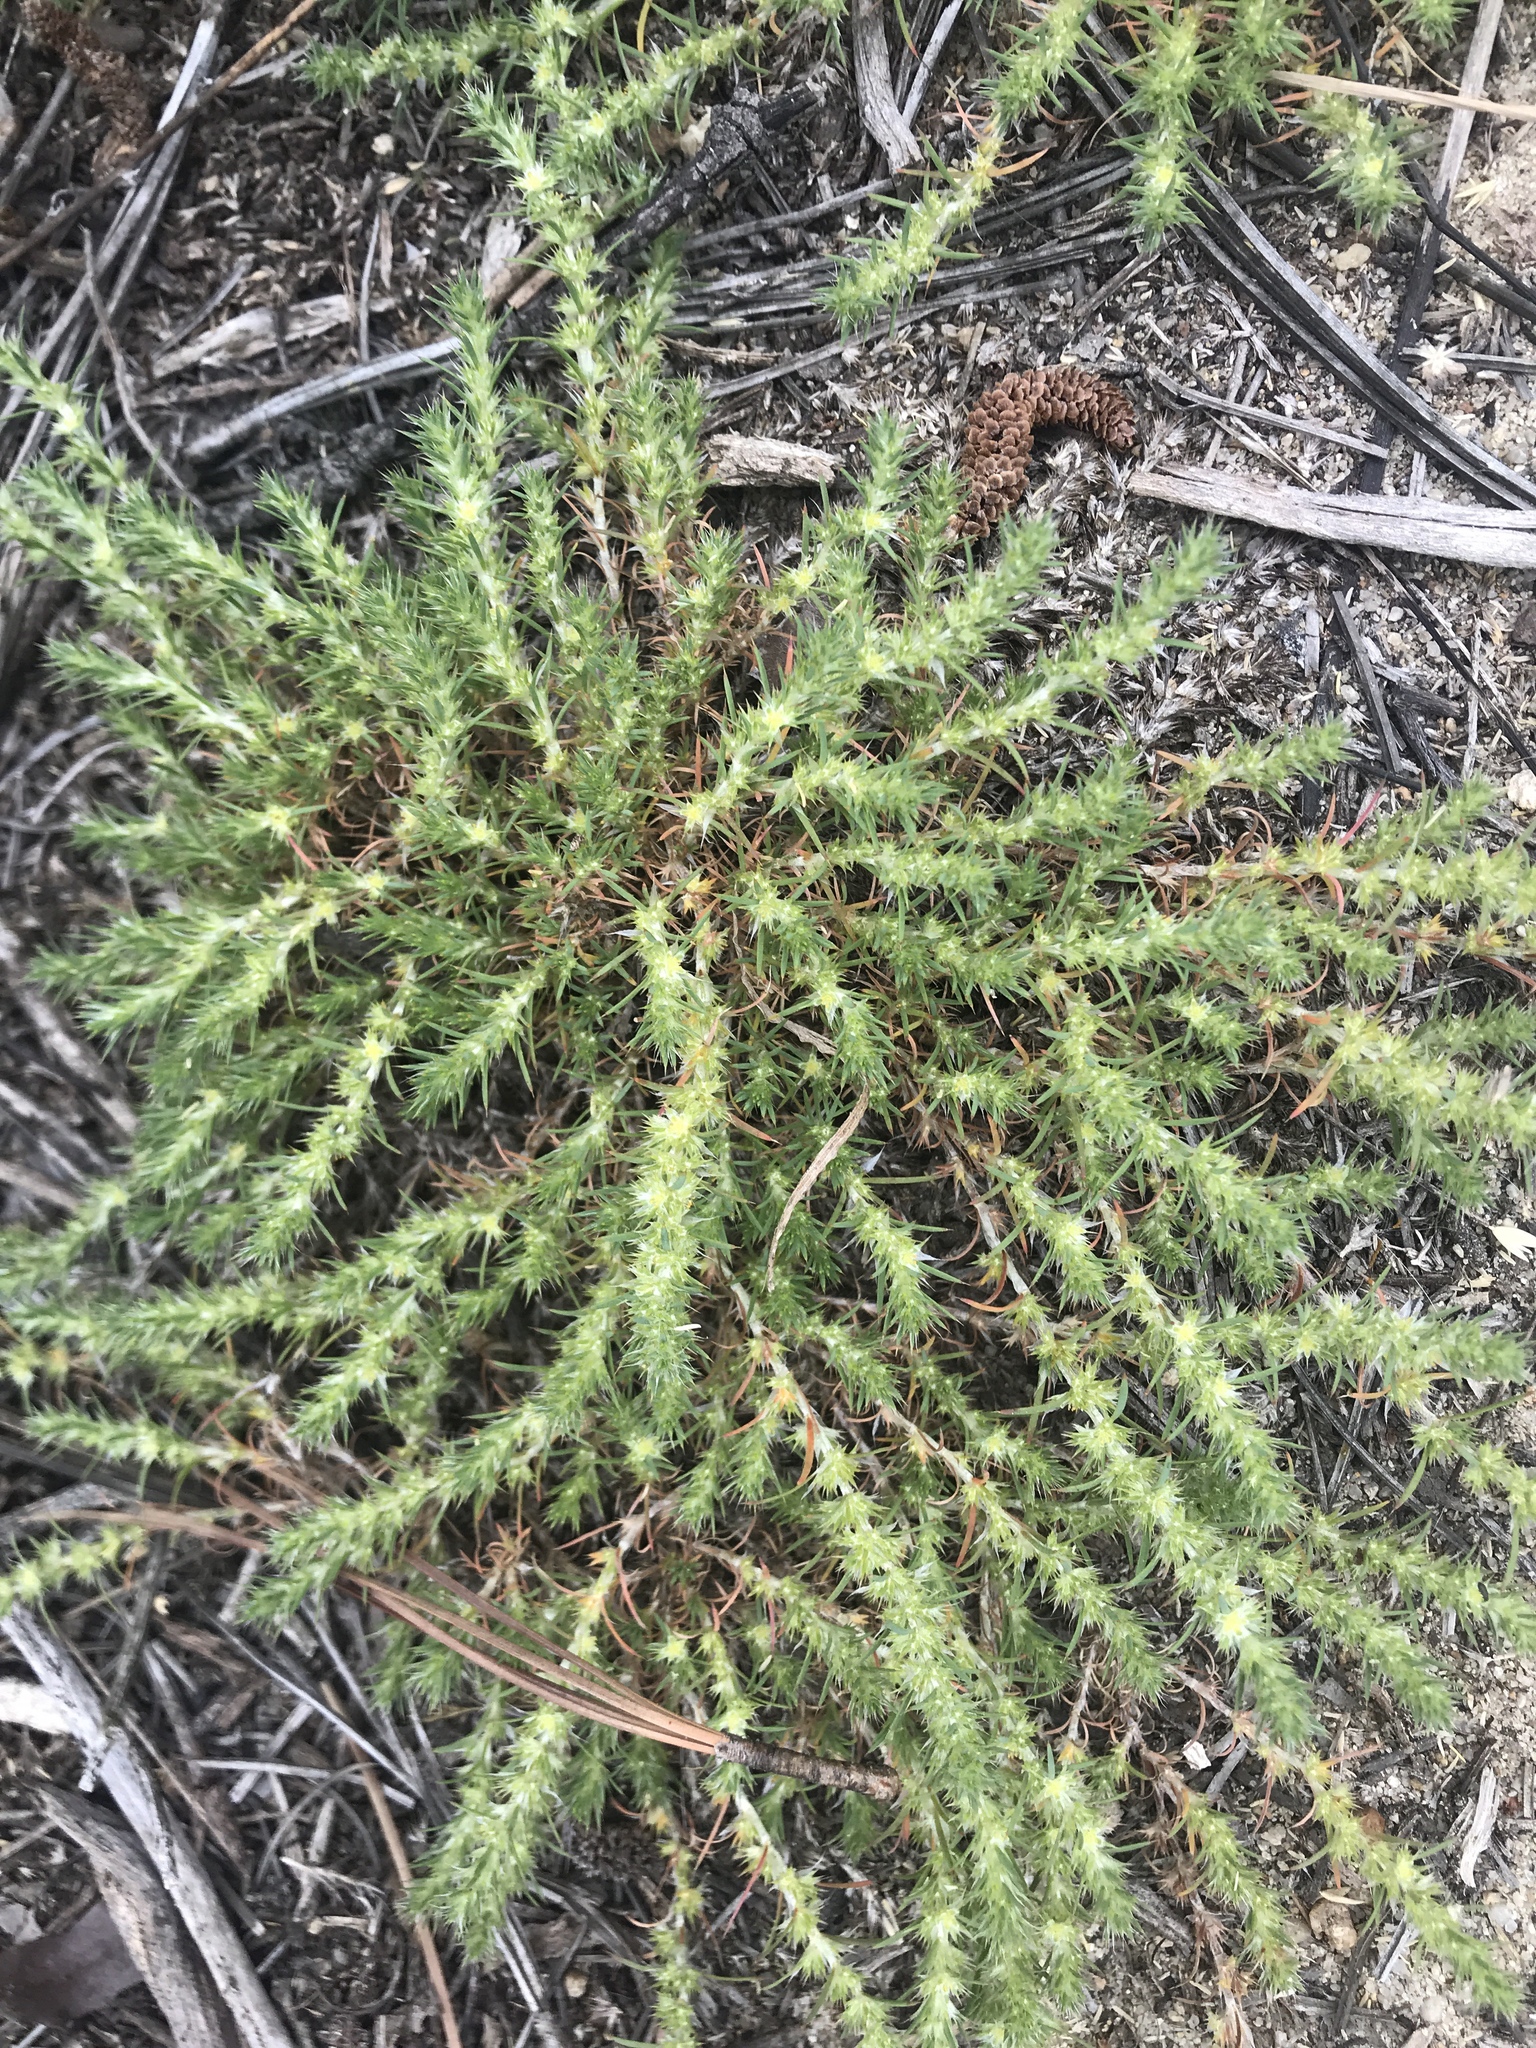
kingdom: Plantae
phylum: Tracheophyta
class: Magnoliopsida
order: Caryophyllales
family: Caryophyllaceae
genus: Cardionema
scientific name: Cardionema ramosissima
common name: Sandcarpet
